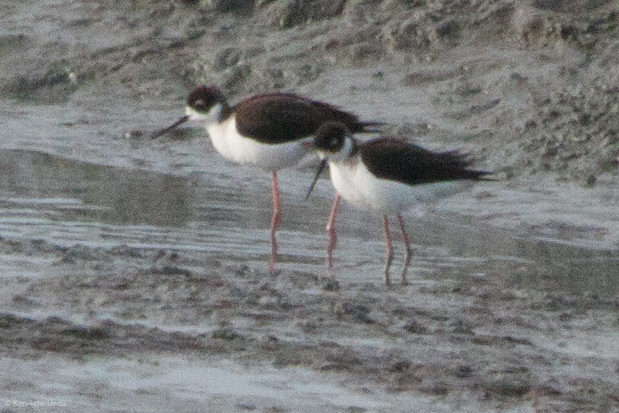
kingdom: Animalia
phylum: Chordata
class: Aves
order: Charadriiformes
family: Recurvirostridae
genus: Himantopus
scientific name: Himantopus mexicanus
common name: Black-necked stilt
